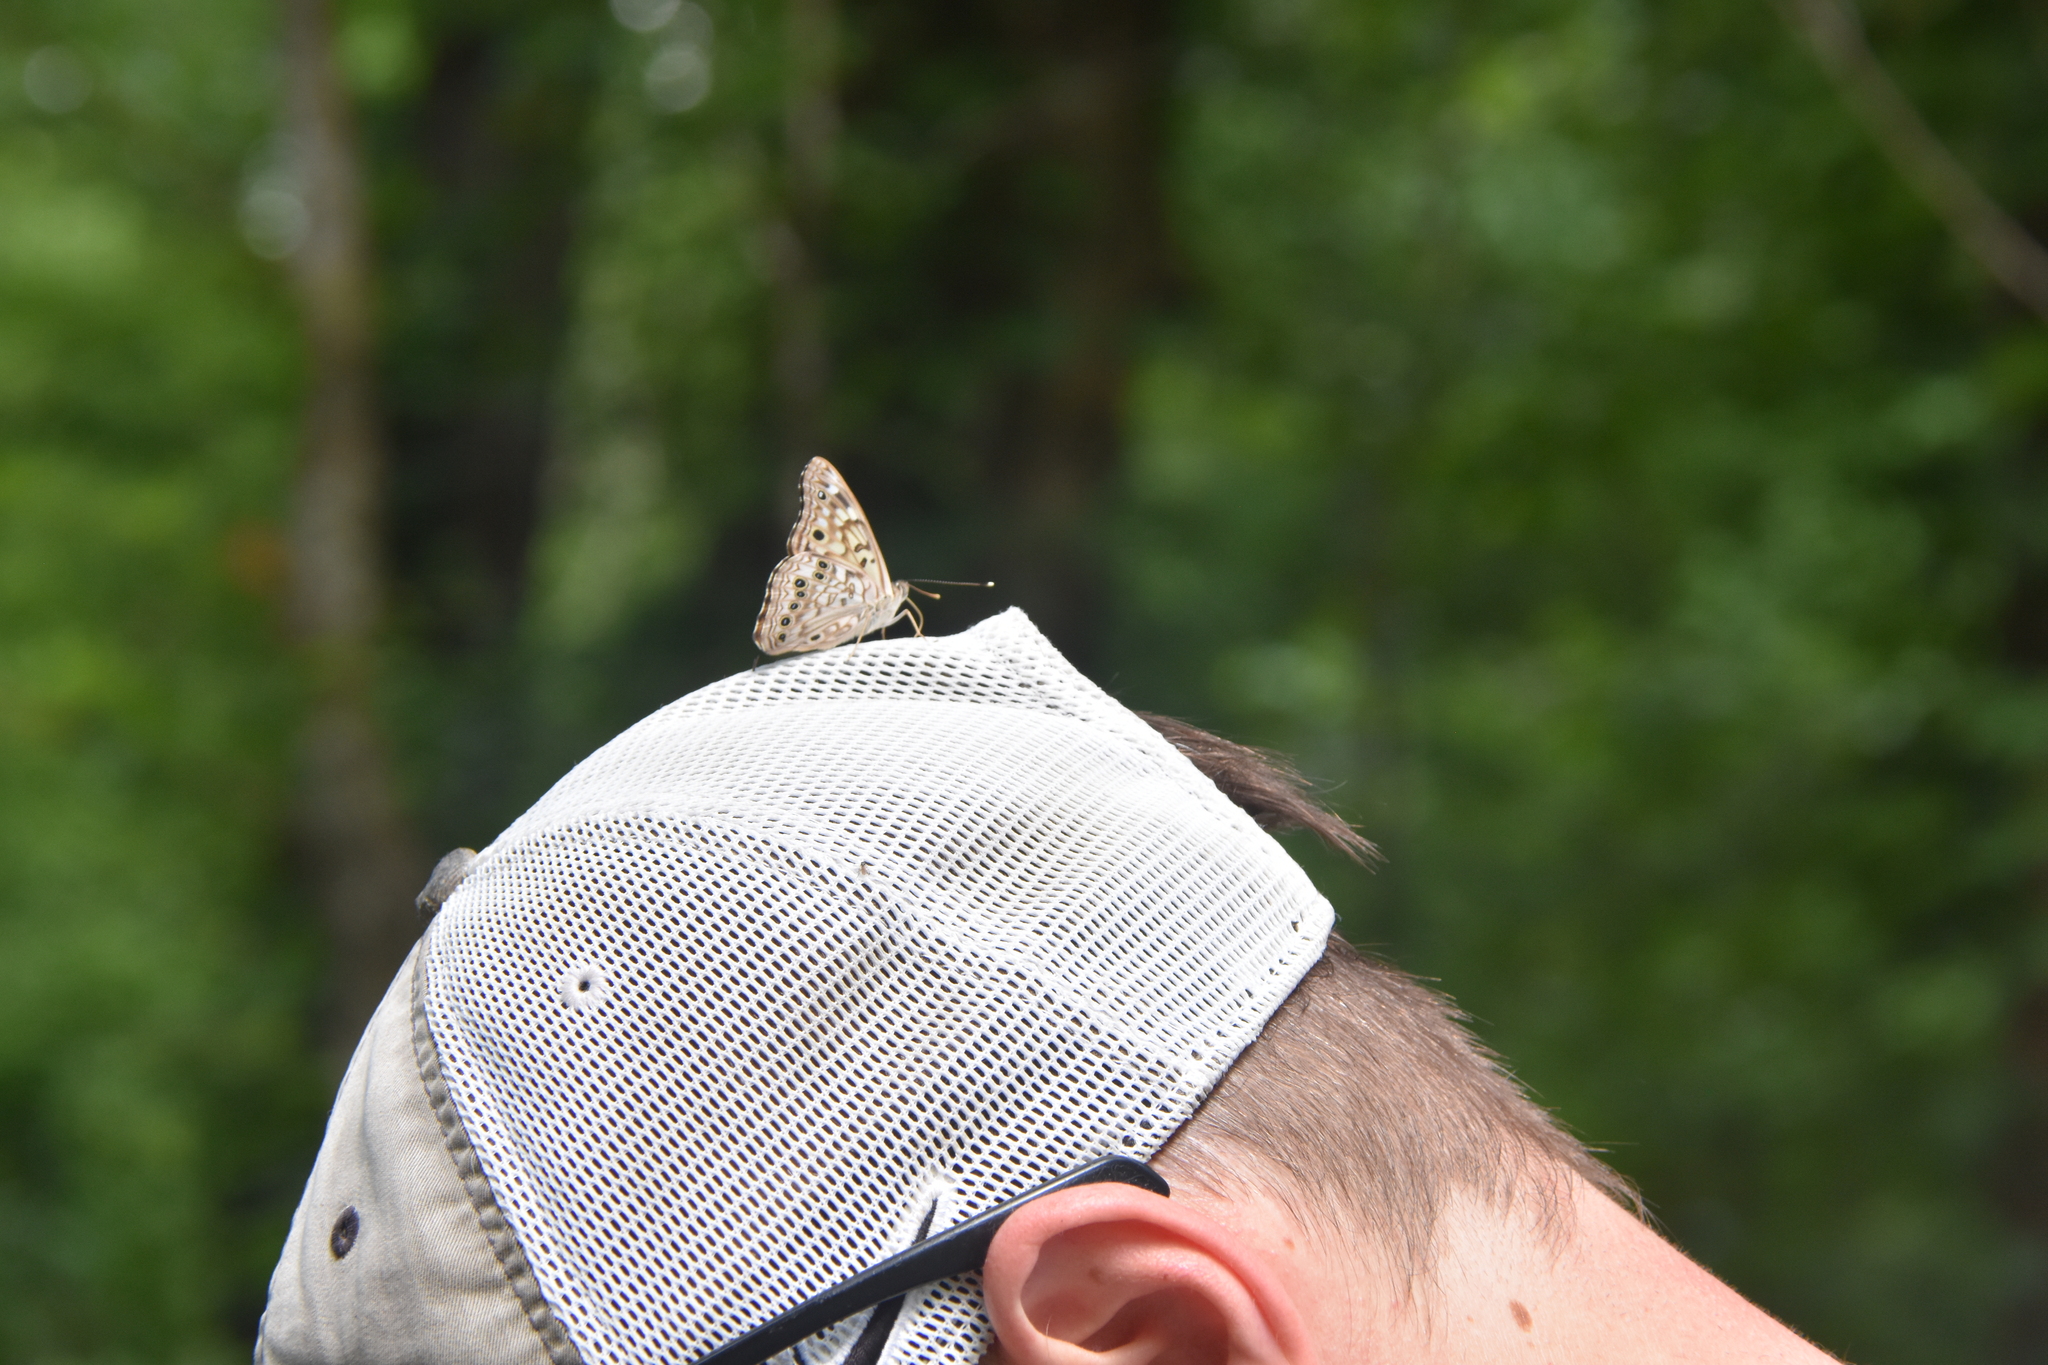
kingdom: Animalia
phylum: Arthropoda
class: Insecta
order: Lepidoptera
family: Nymphalidae
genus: Asterocampa
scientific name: Asterocampa celtis
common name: Hackberry emperor
